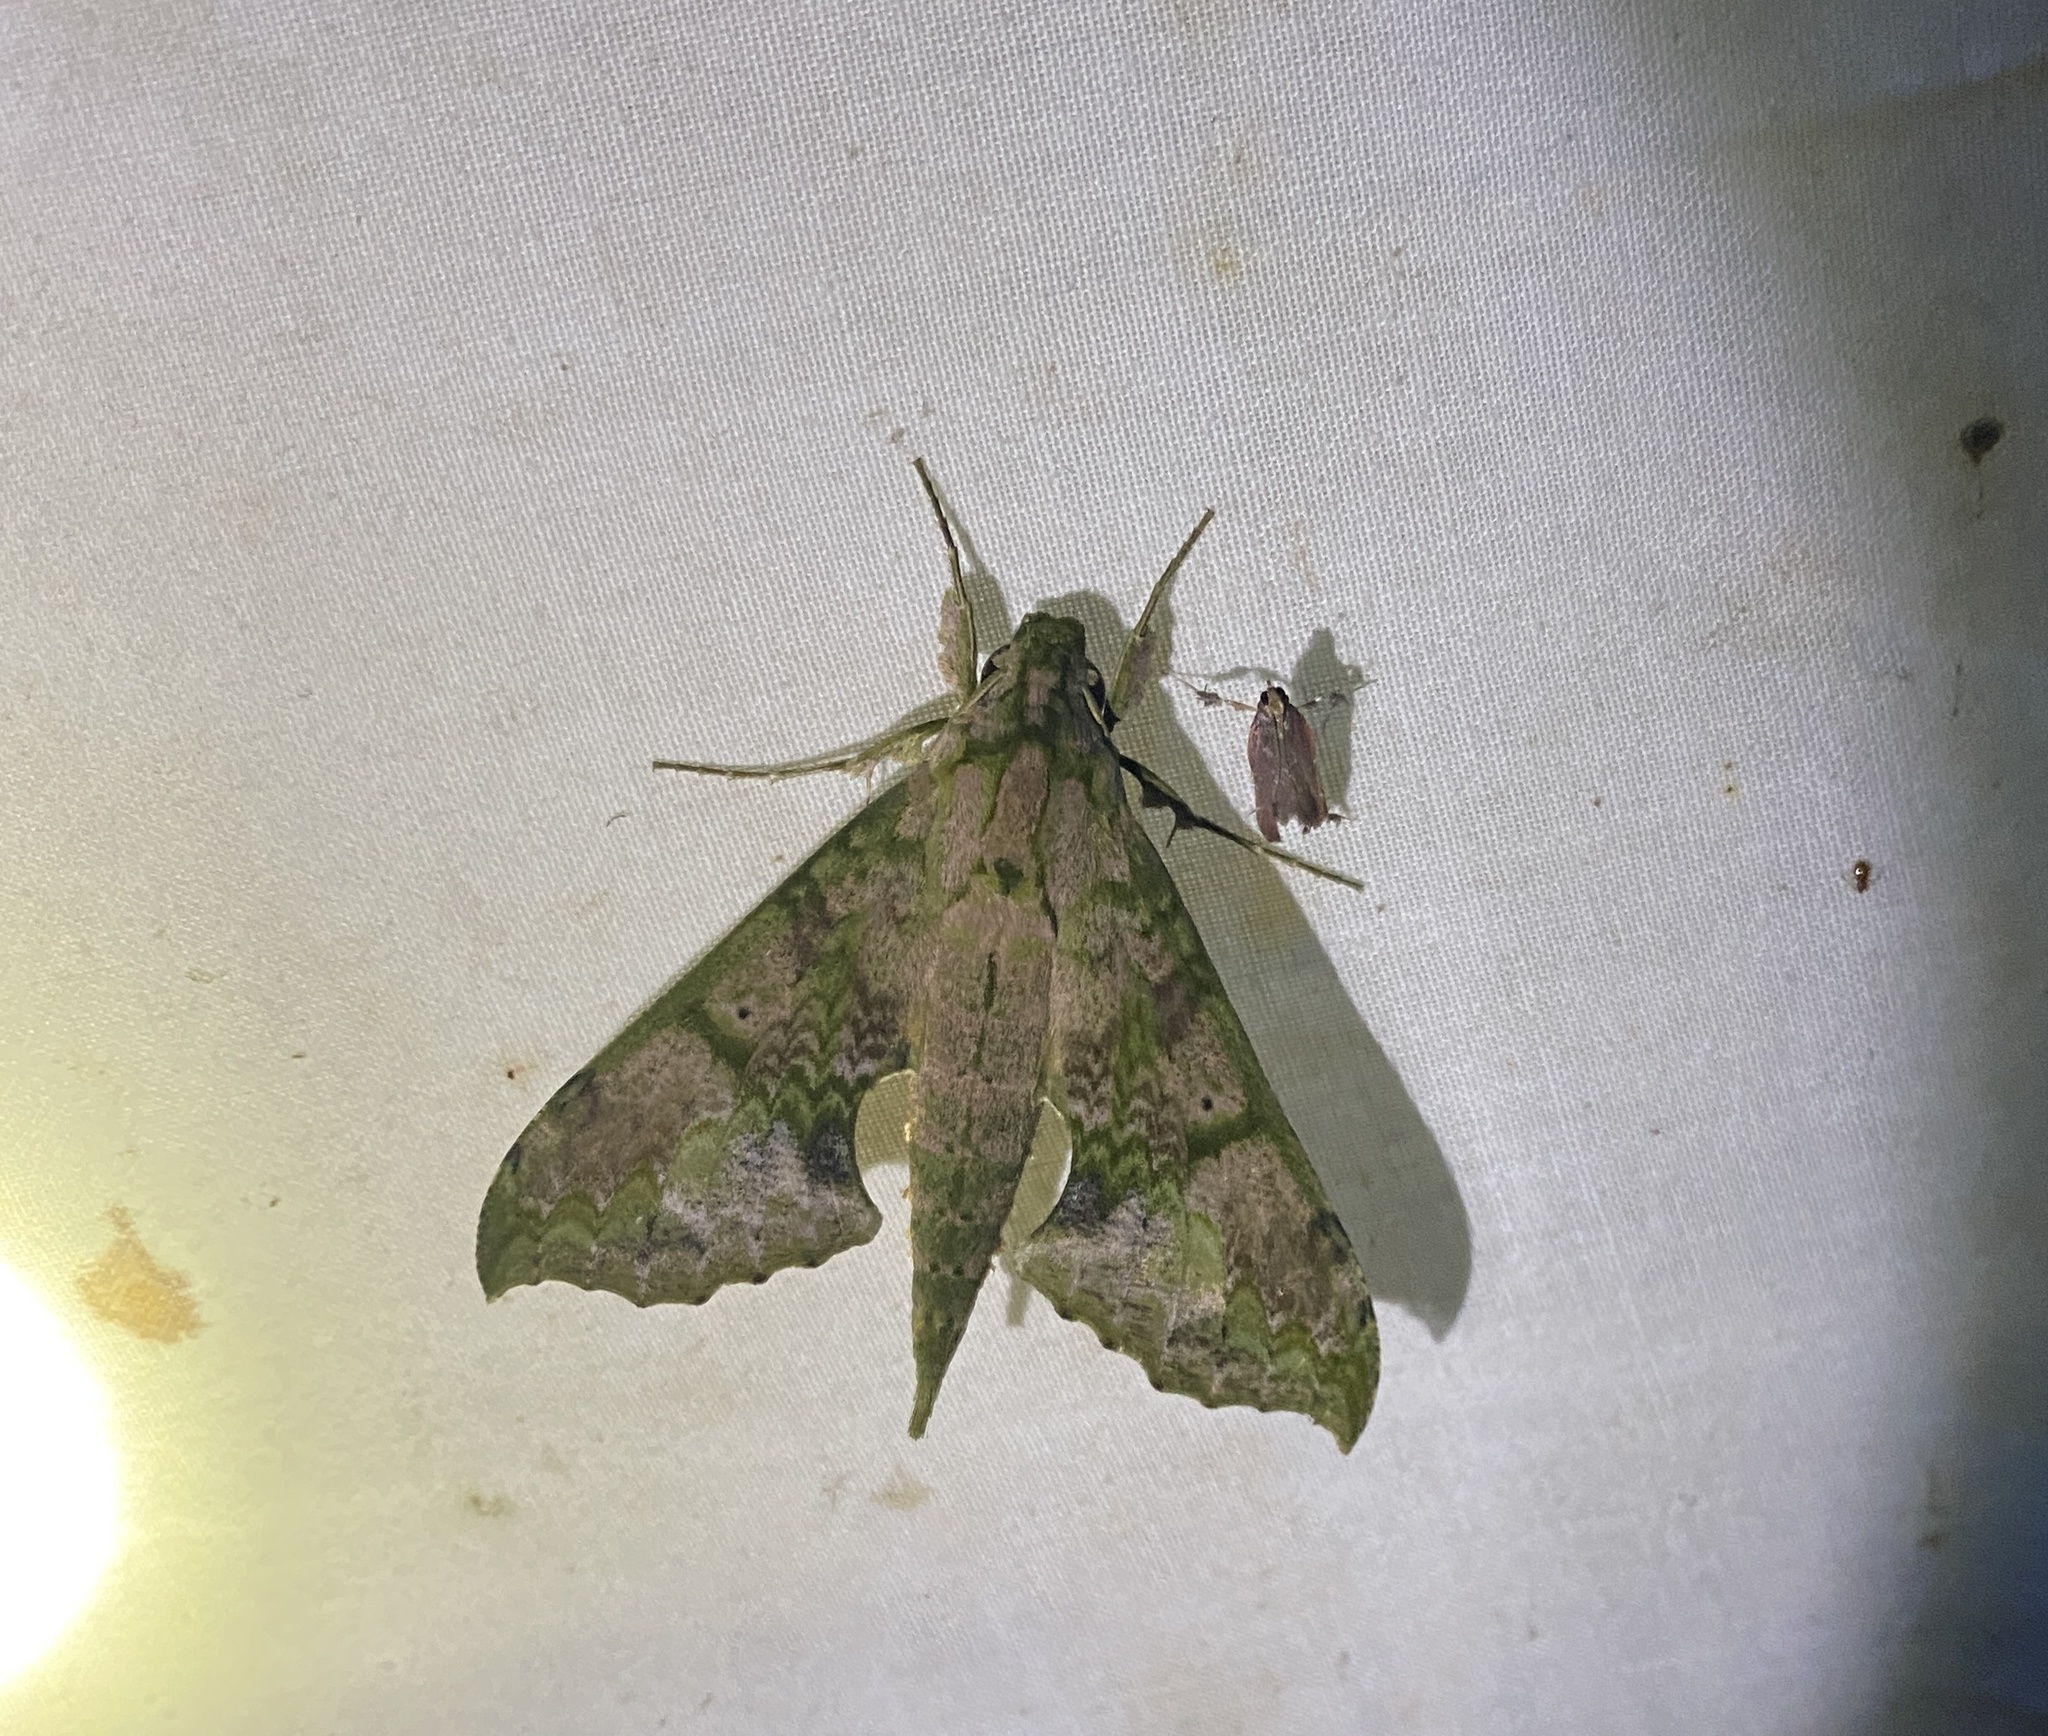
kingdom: Animalia
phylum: Arthropoda
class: Insecta
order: Lepidoptera
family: Sphingidae
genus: Xylophanes
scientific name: Xylophanes zurcheri
